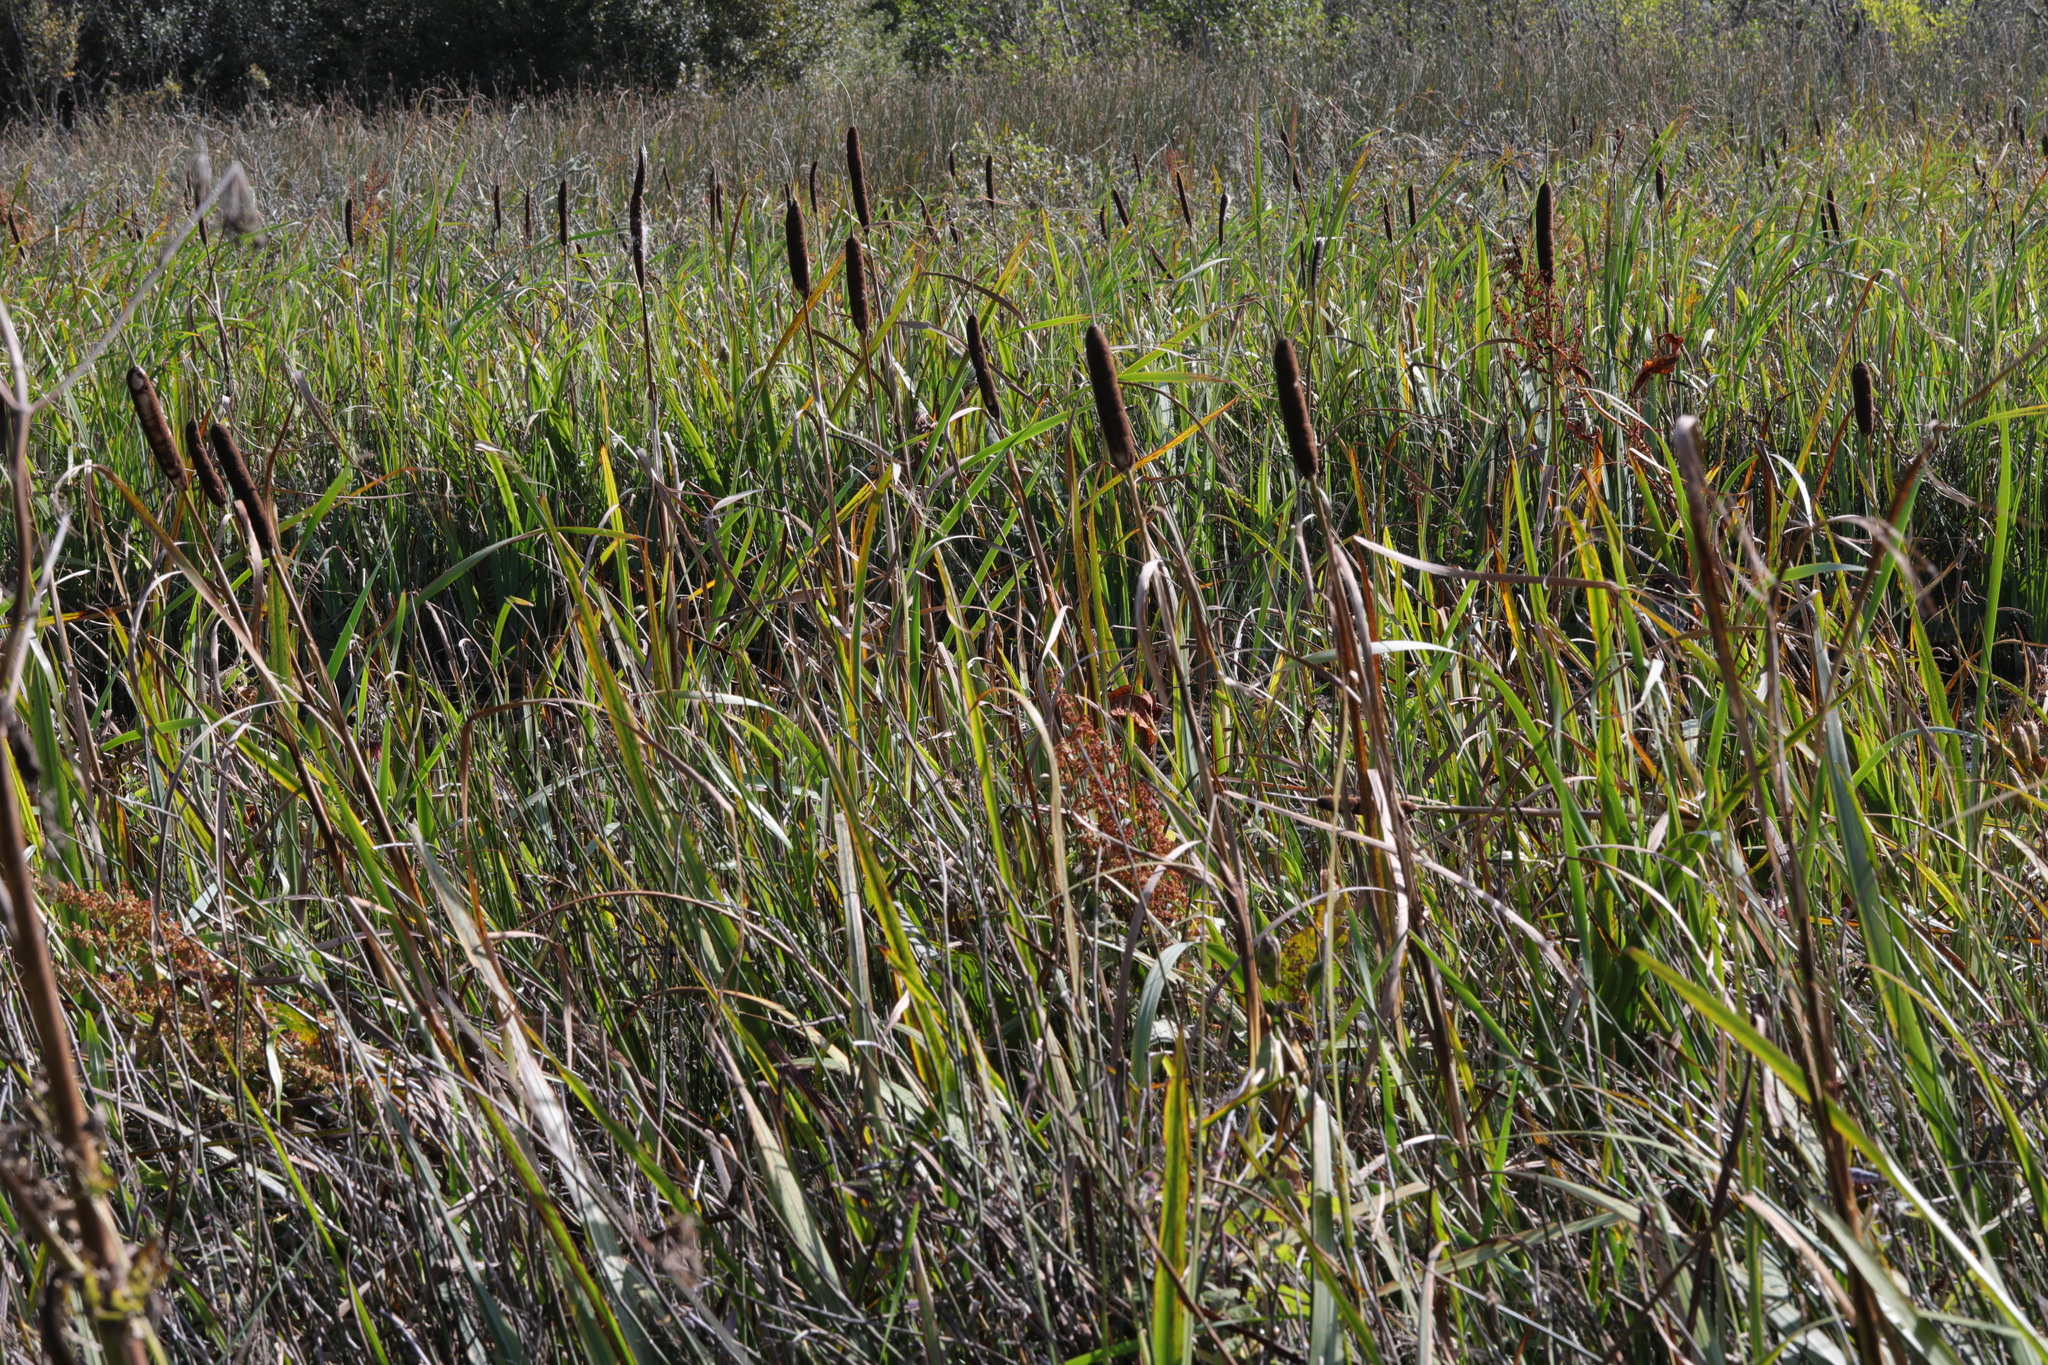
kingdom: Plantae
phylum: Tracheophyta
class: Liliopsida
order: Poales
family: Typhaceae
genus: Typha
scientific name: Typha latifolia
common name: Broadleaf cattail
